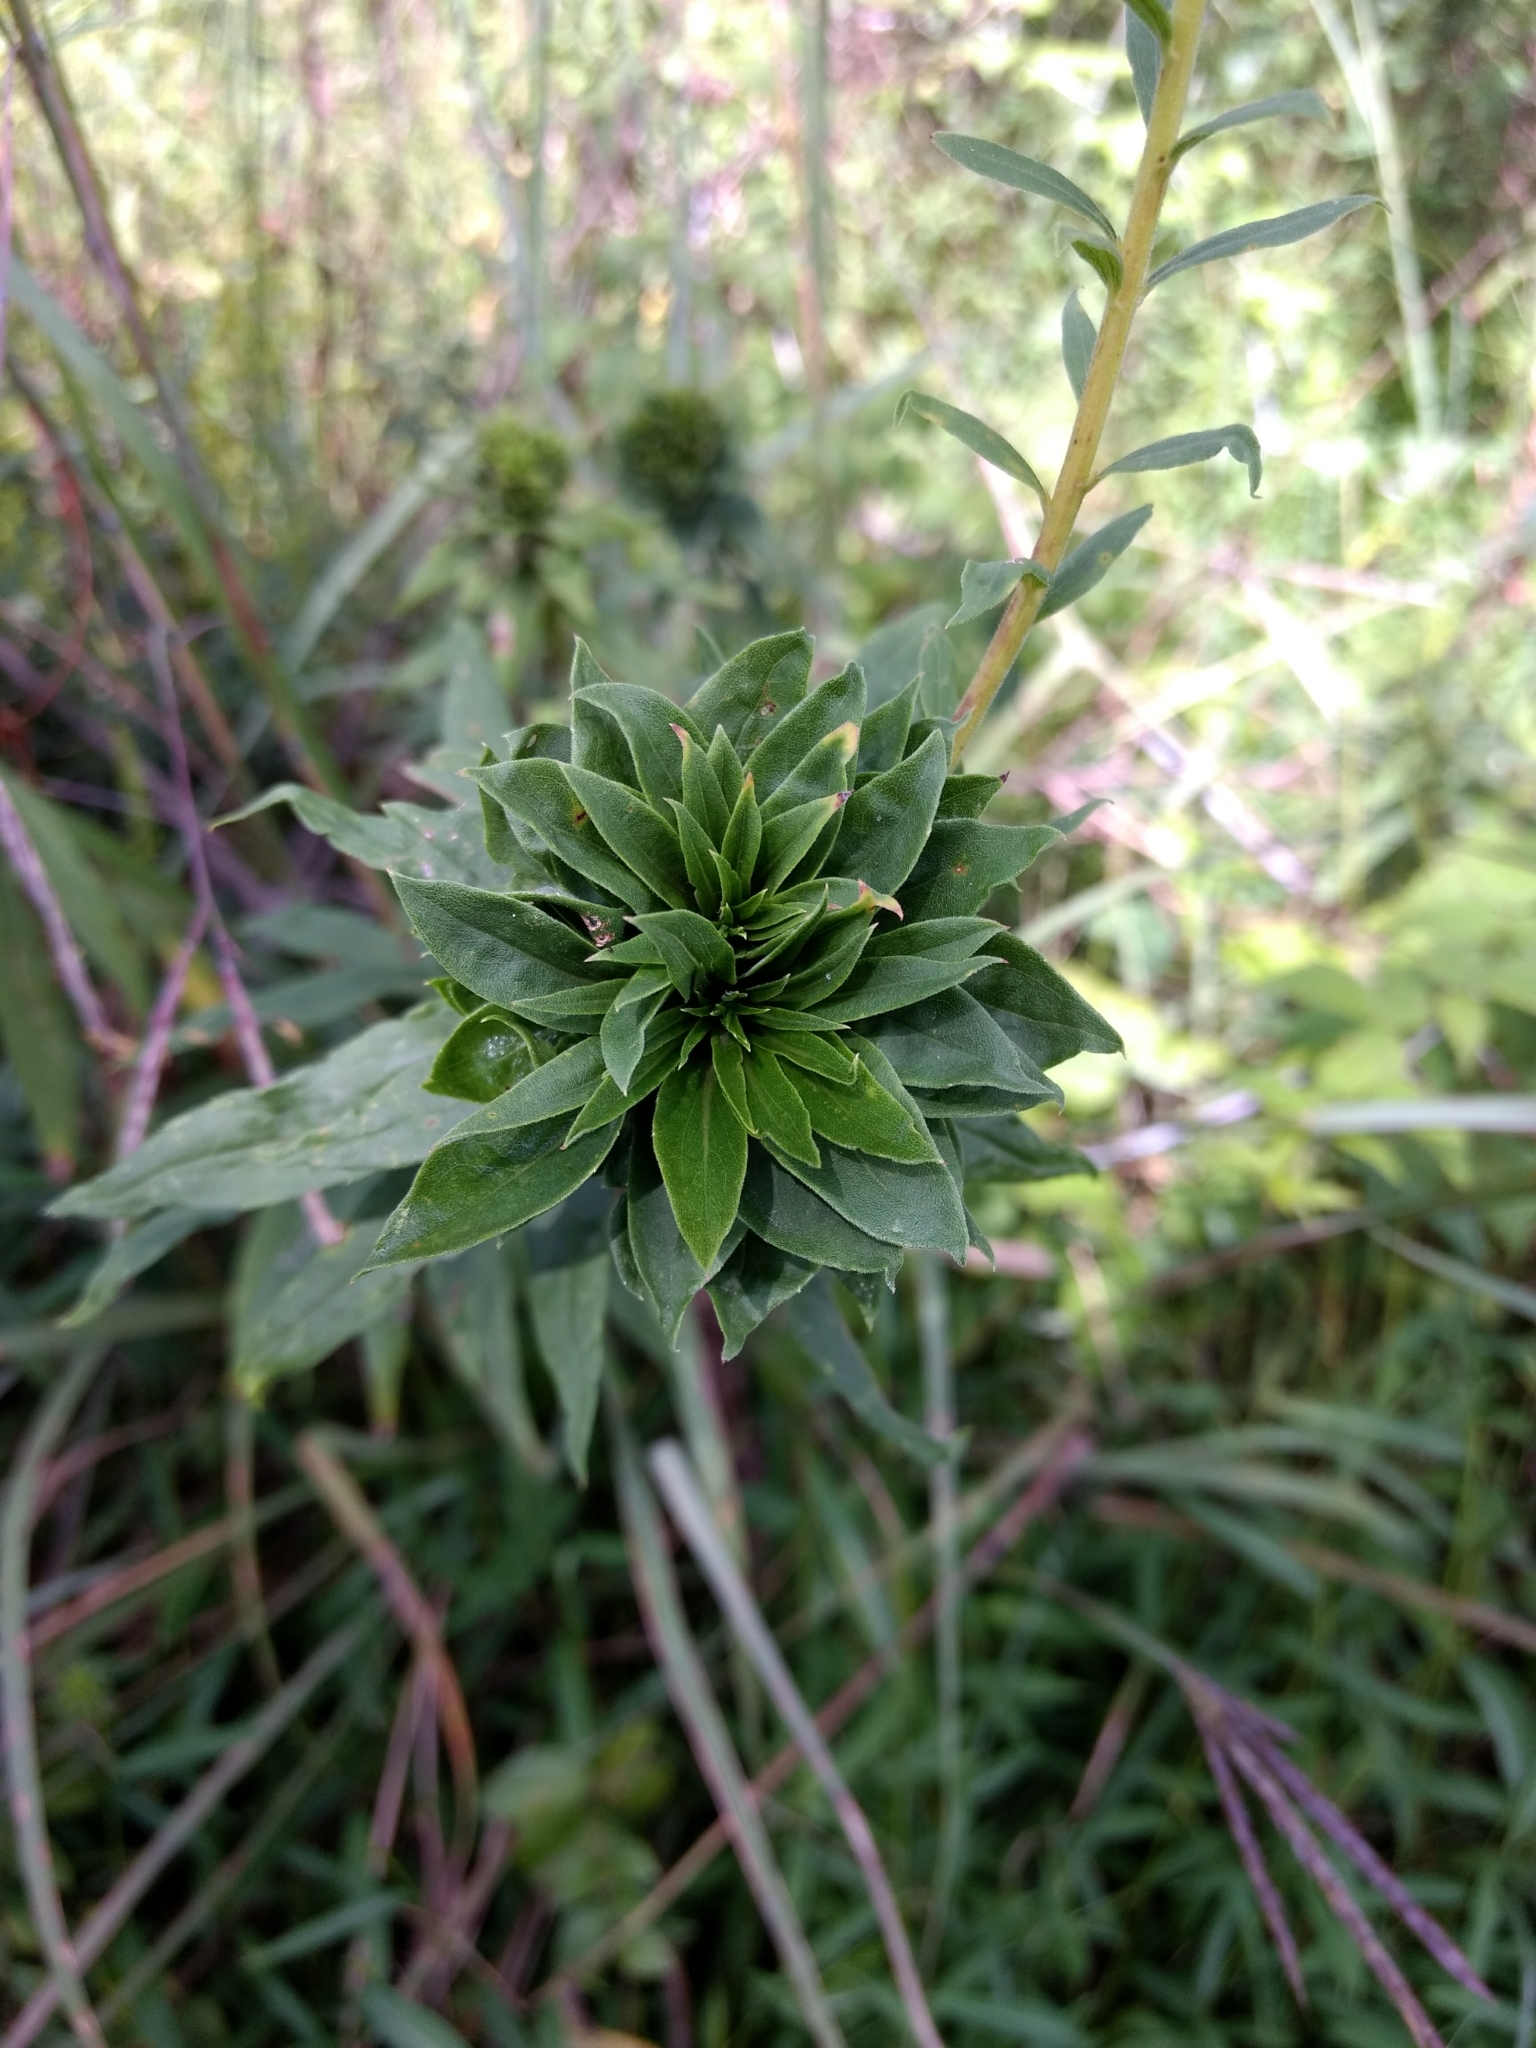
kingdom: Animalia
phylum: Arthropoda
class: Insecta
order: Diptera
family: Cecidomyiidae
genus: Rhopalomyia
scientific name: Rhopalomyia solidaginis
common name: Goldenrod bunch gall midge
